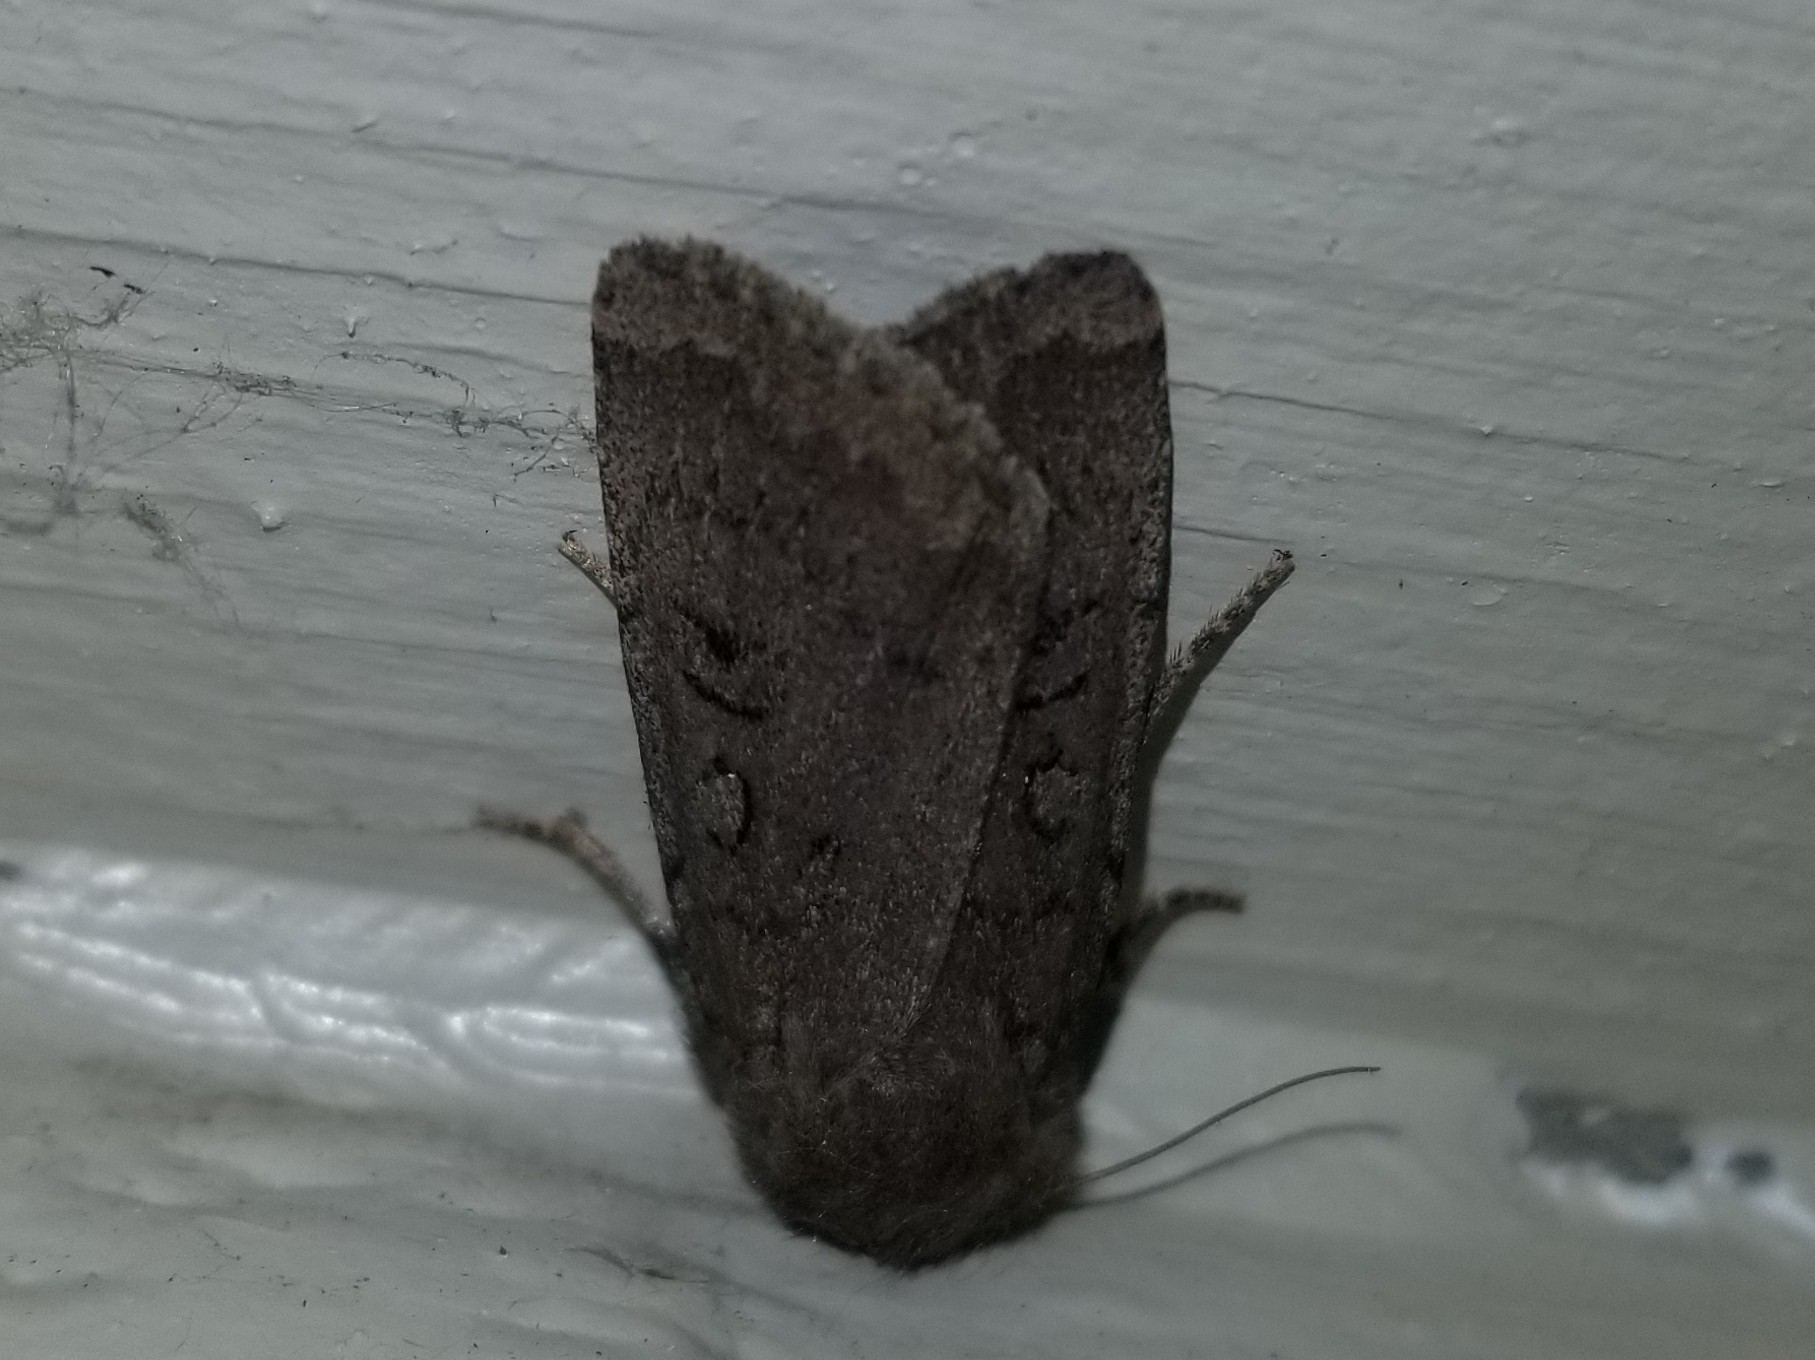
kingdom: Animalia
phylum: Arthropoda
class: Insecta
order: Lepidoptera
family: Noctuidae
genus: Graphiphora
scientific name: Graphiphora augur
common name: Double dart
